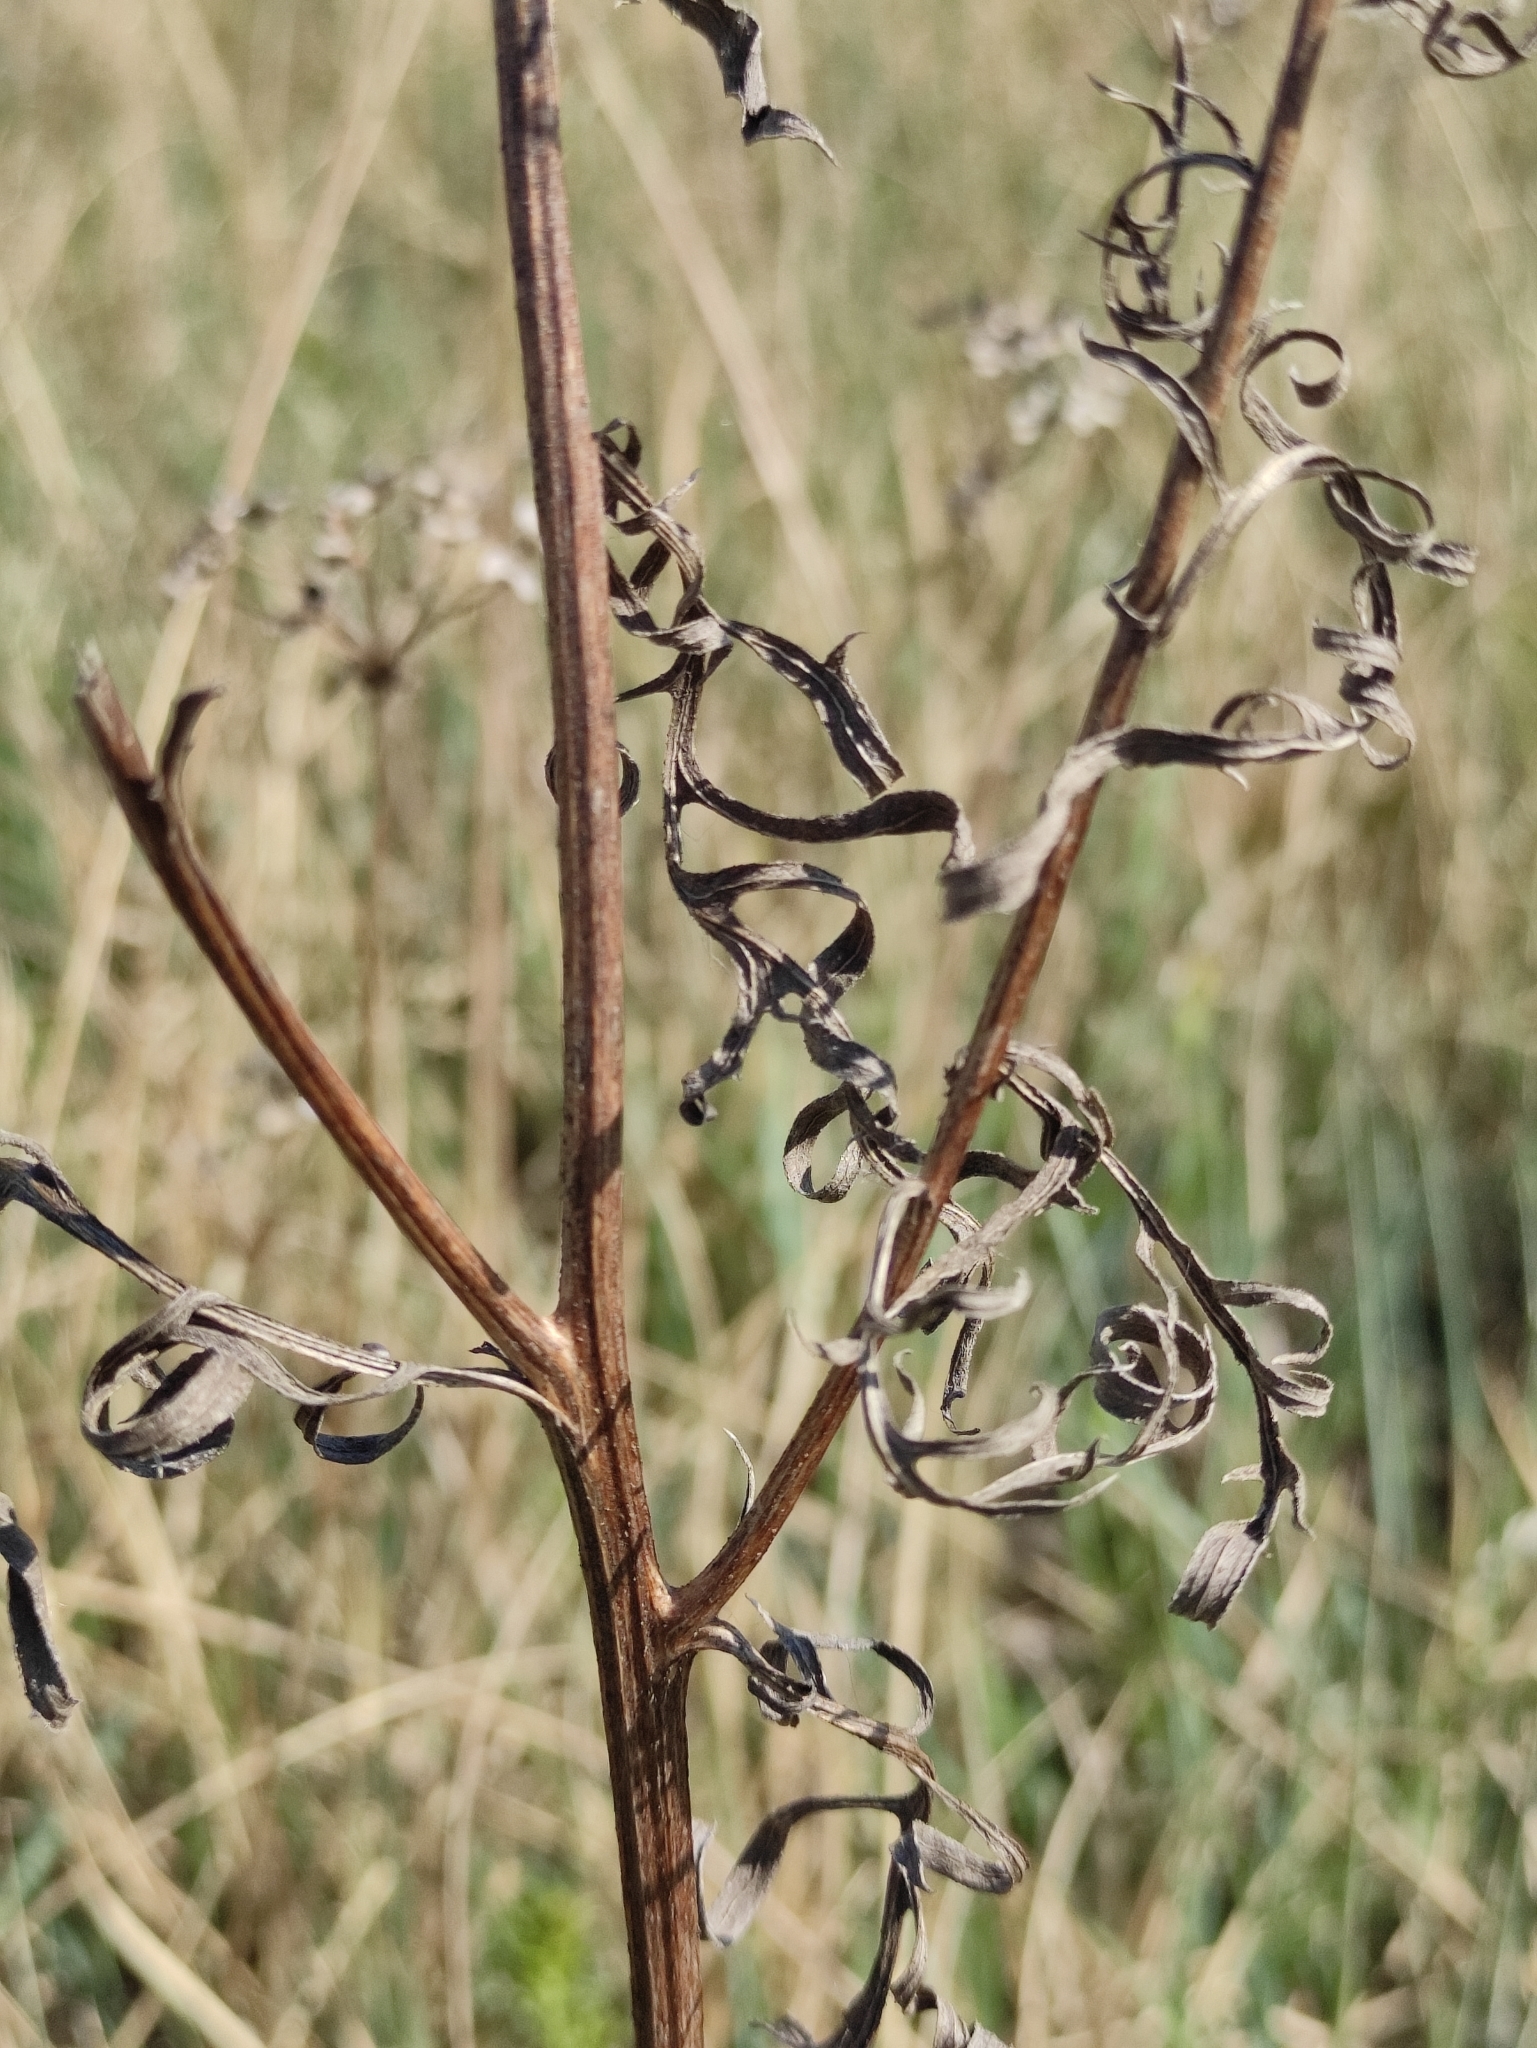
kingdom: Plantae
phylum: Tracheophyta
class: Magnoliopsida
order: Asterales
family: Asteraceae
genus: Klasea
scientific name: Klasea centauroides
